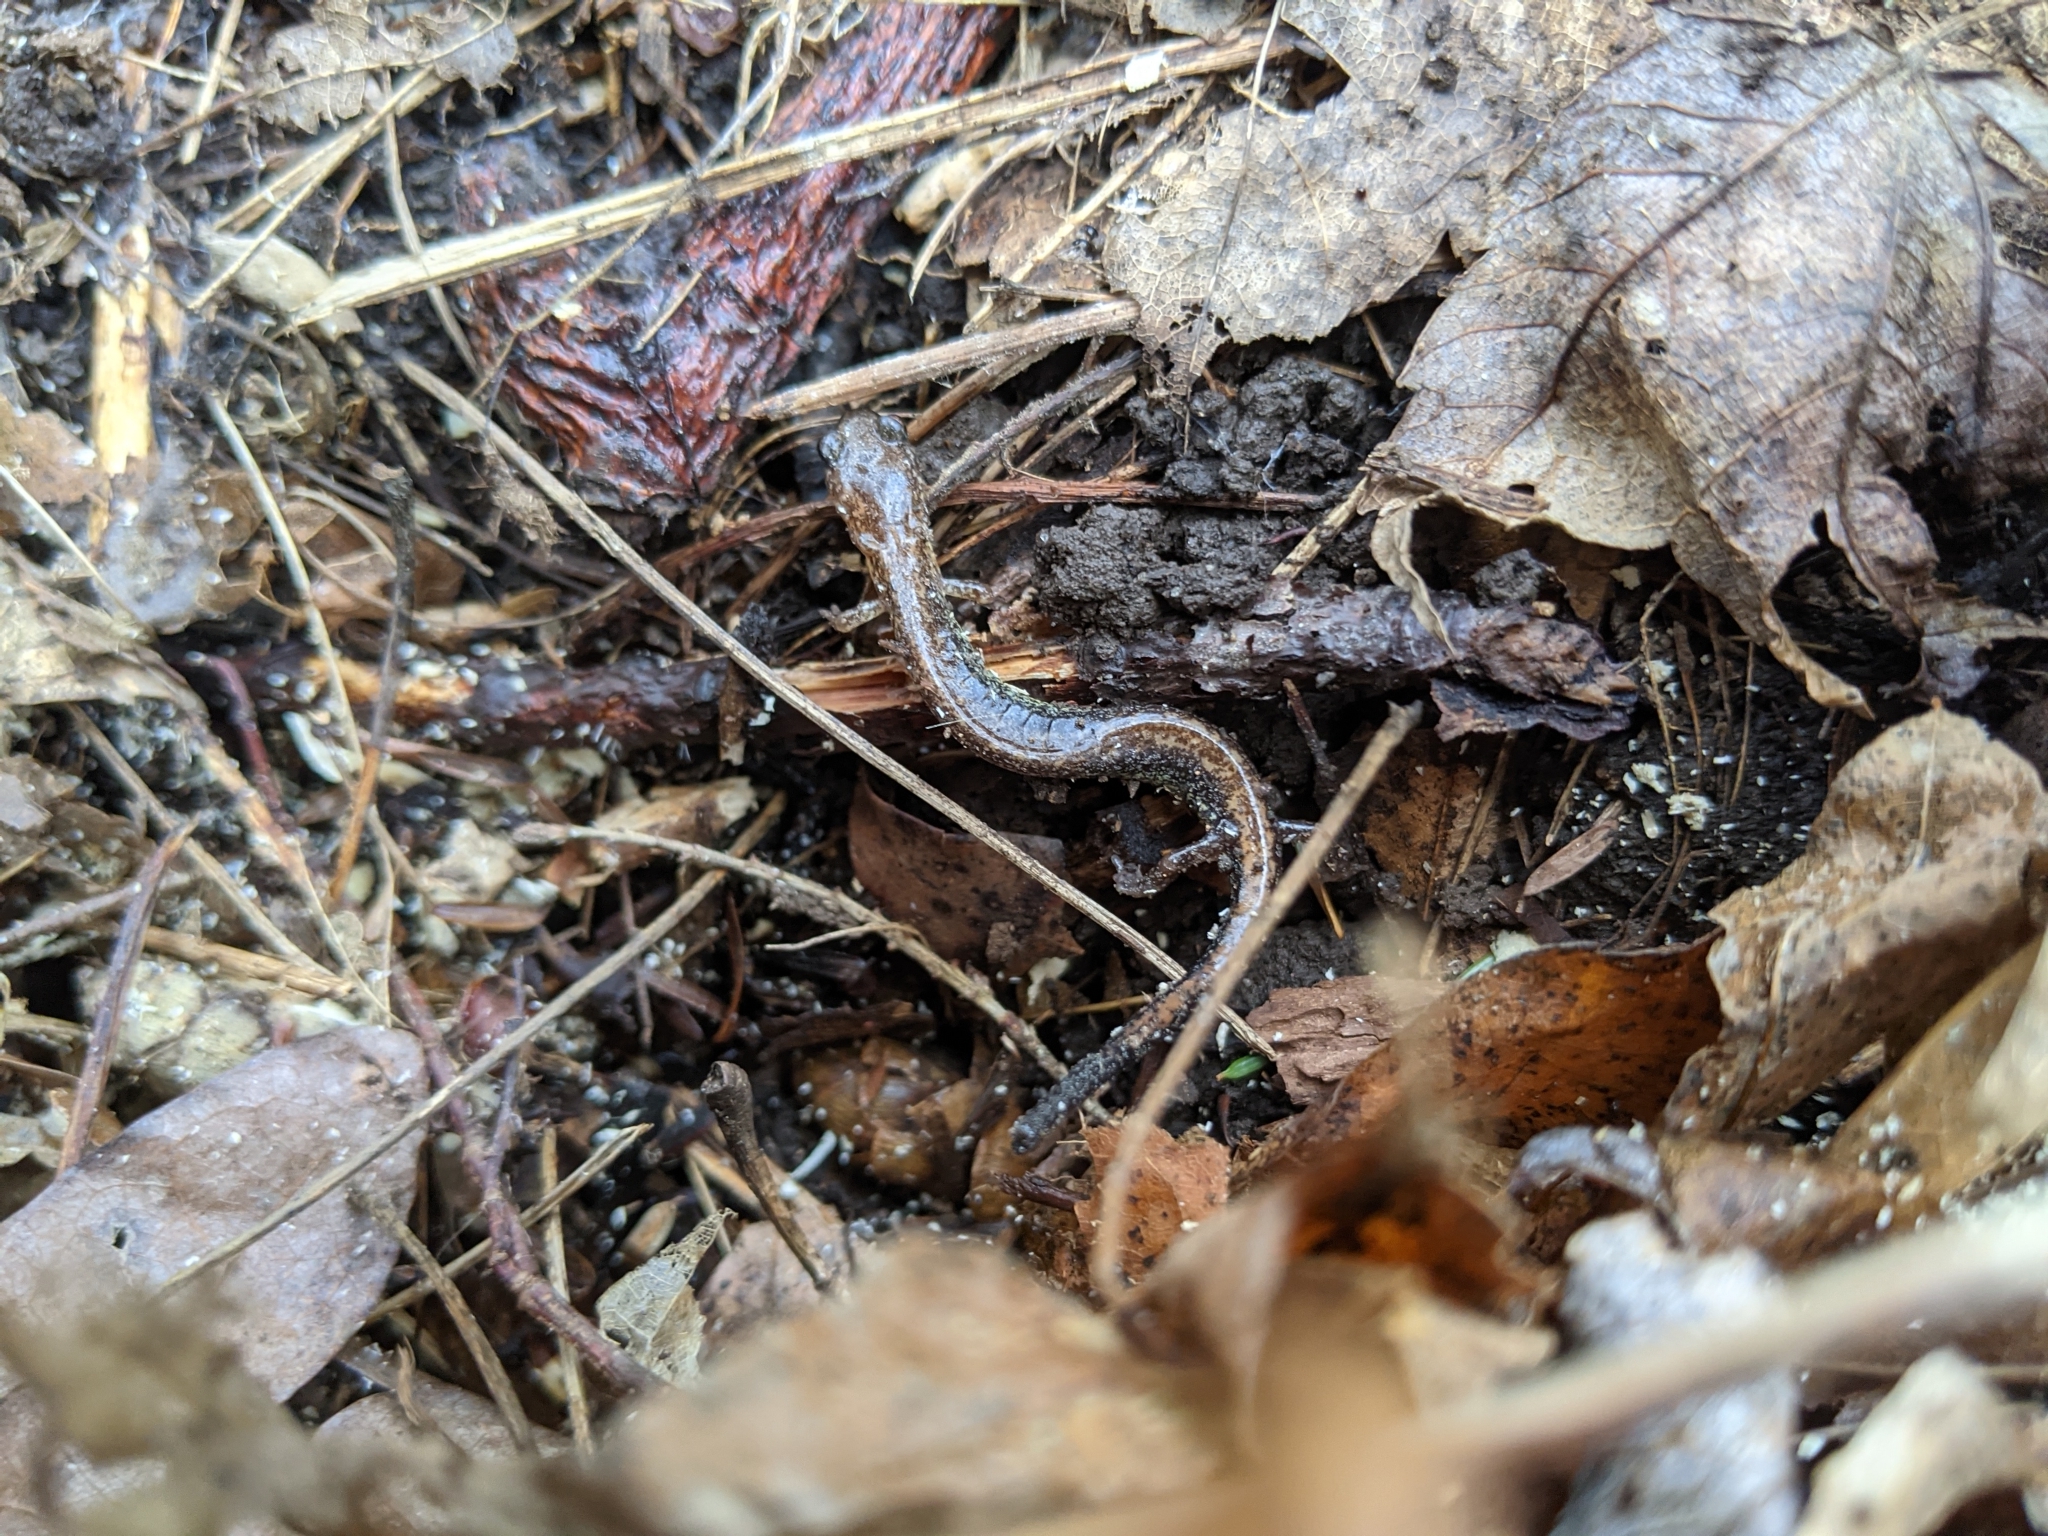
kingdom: Animalia
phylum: Chordata
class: Amphibia
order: Caudata
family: Plethodontidae
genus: Plethodon
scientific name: Plethodon cinereus
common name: Redback salamander
